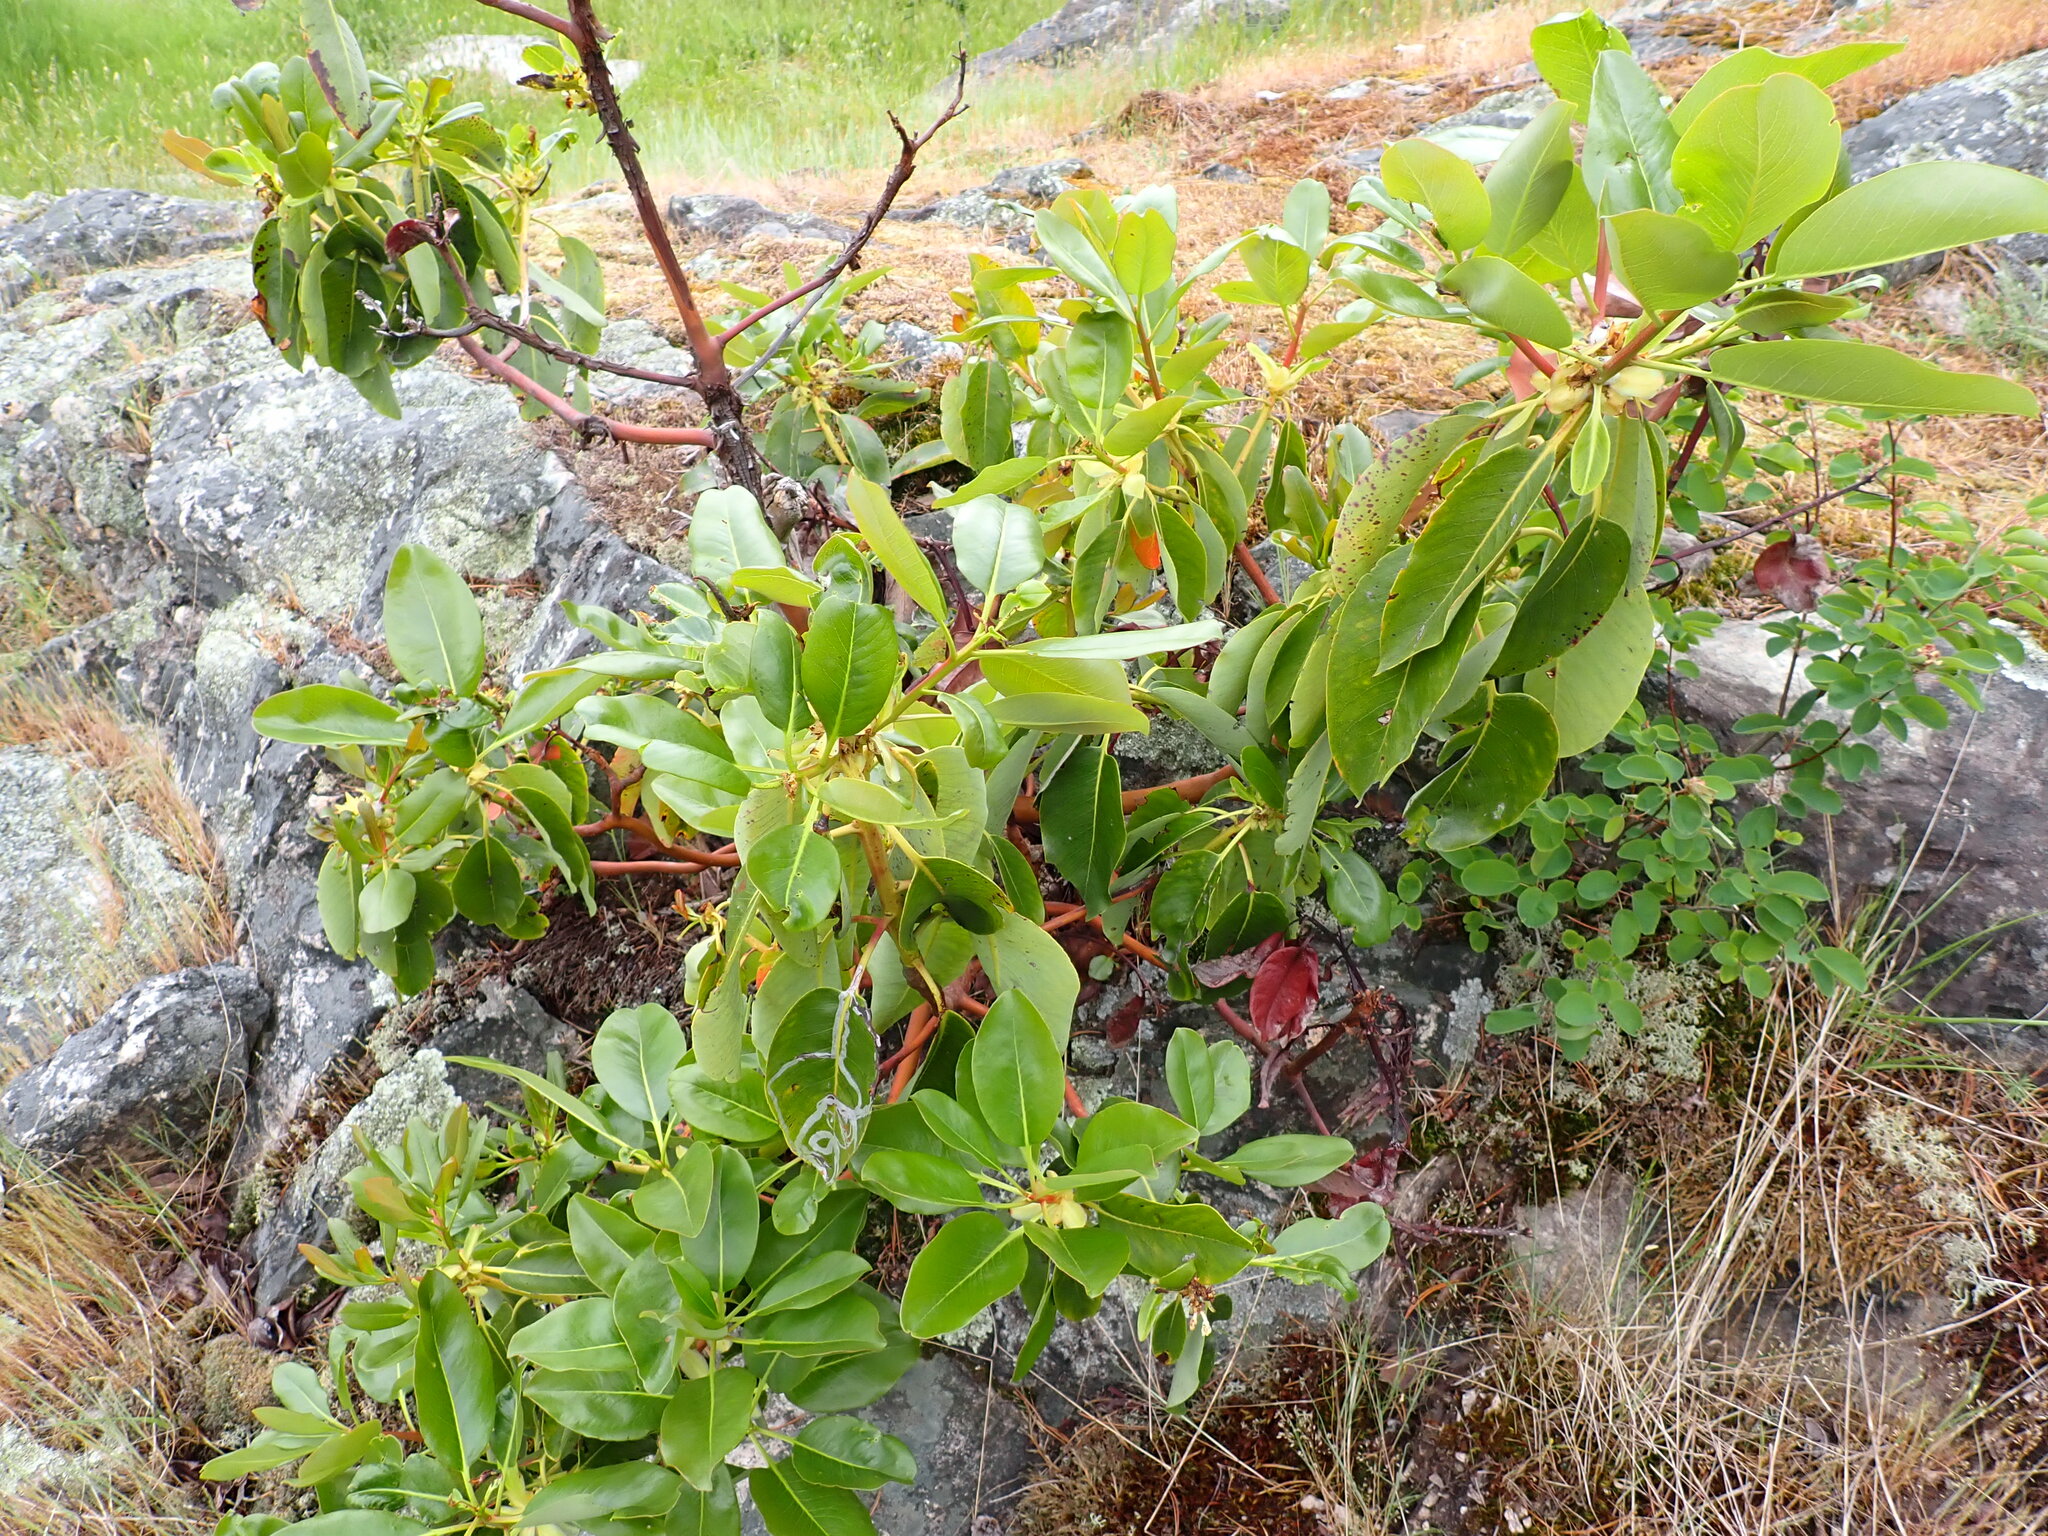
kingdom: Plantae
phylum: Tracheophyta
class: Magnoliopsida
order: Ericales
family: Ericaceae
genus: Arbutus
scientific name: Arbutus menziesii
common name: Pacific madrone
